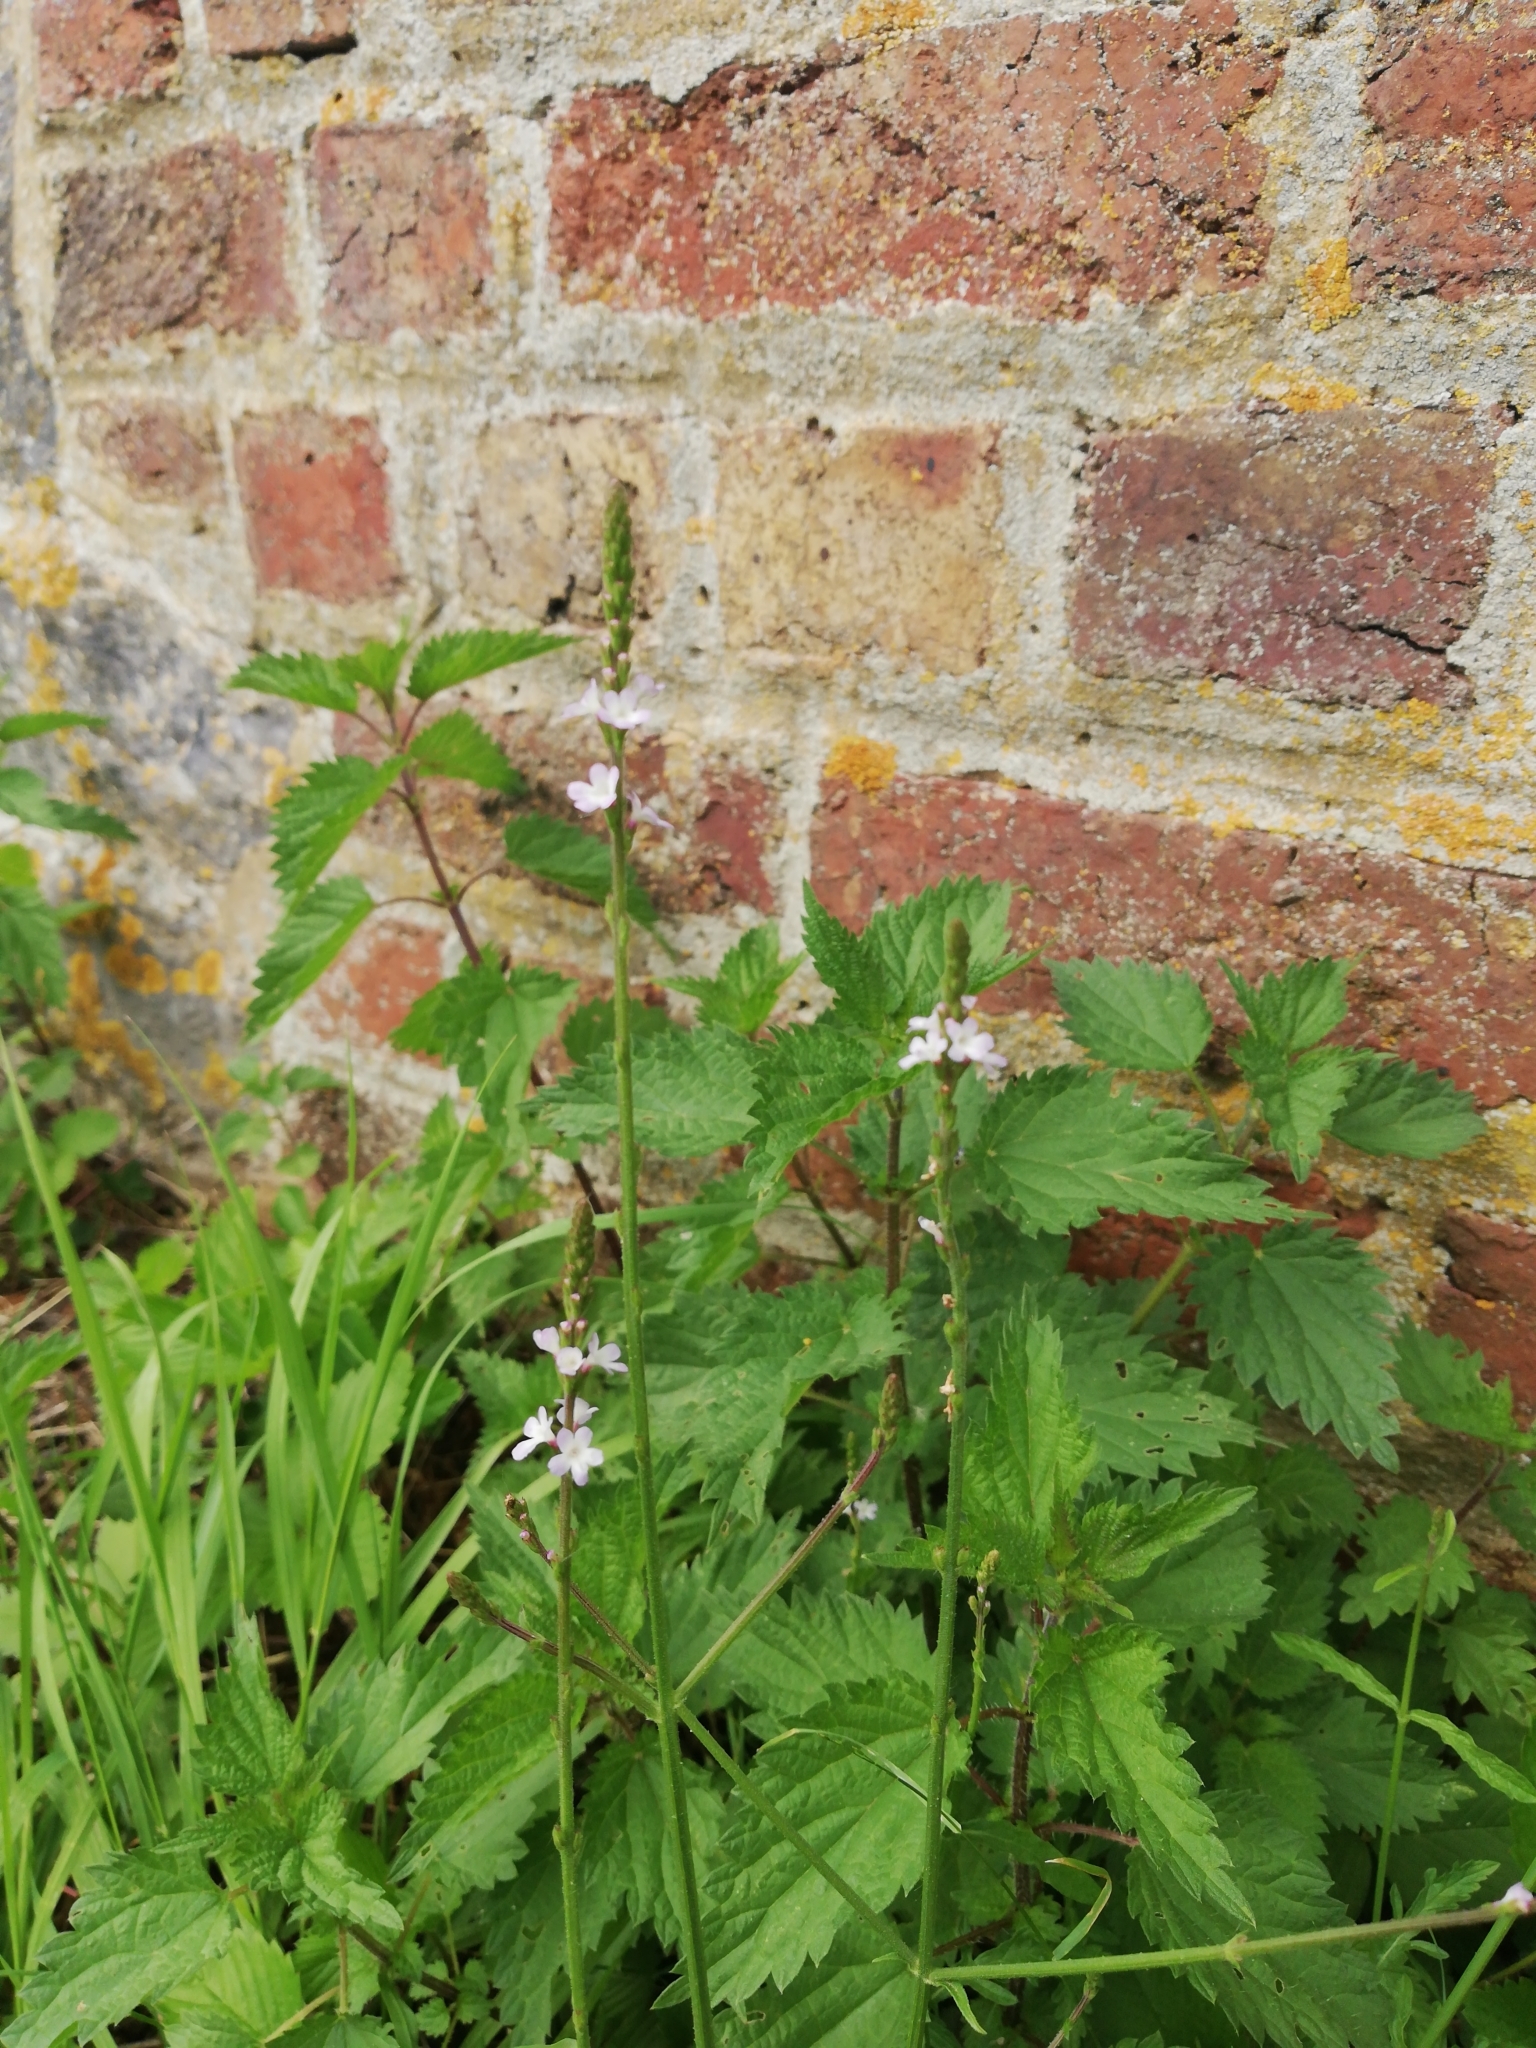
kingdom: Plantae
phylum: Tracheophyta
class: Magnoliopsida
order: Lamiales
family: Verbenaceae
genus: Verbena
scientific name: Verbena officinalis
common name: Vervain
